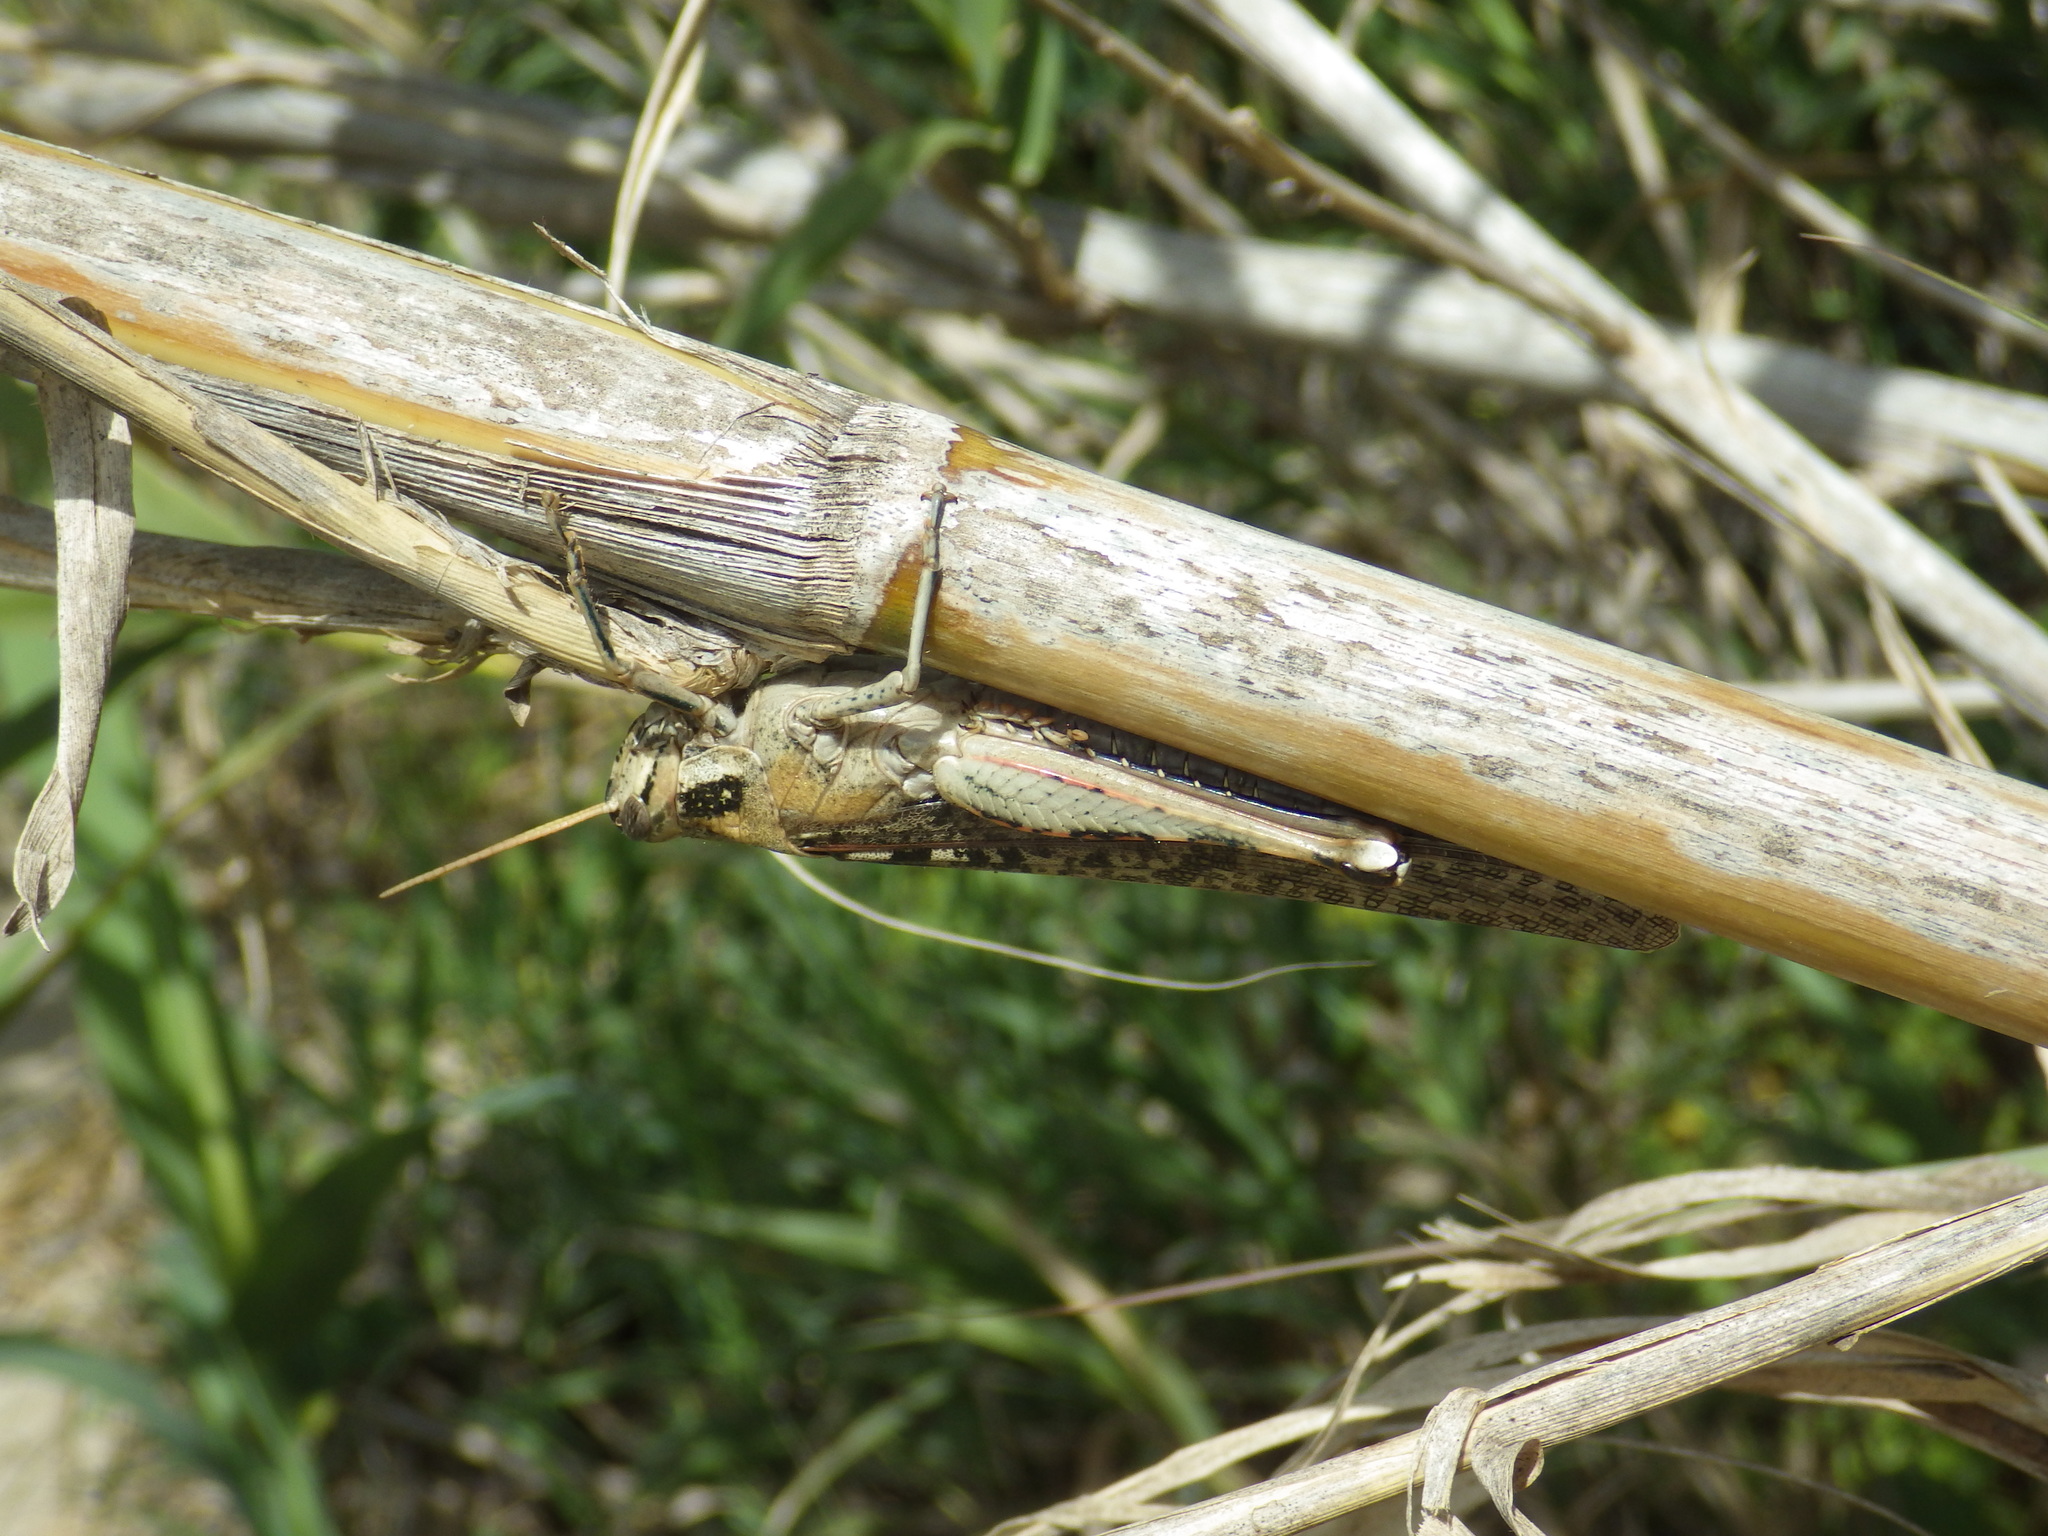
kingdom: Animalia
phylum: Arthropoda
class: Insecta
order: Orthoptera
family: Acrididae
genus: Schistocerca
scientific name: Schistocerca nitens
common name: Vagrant grasshopper
